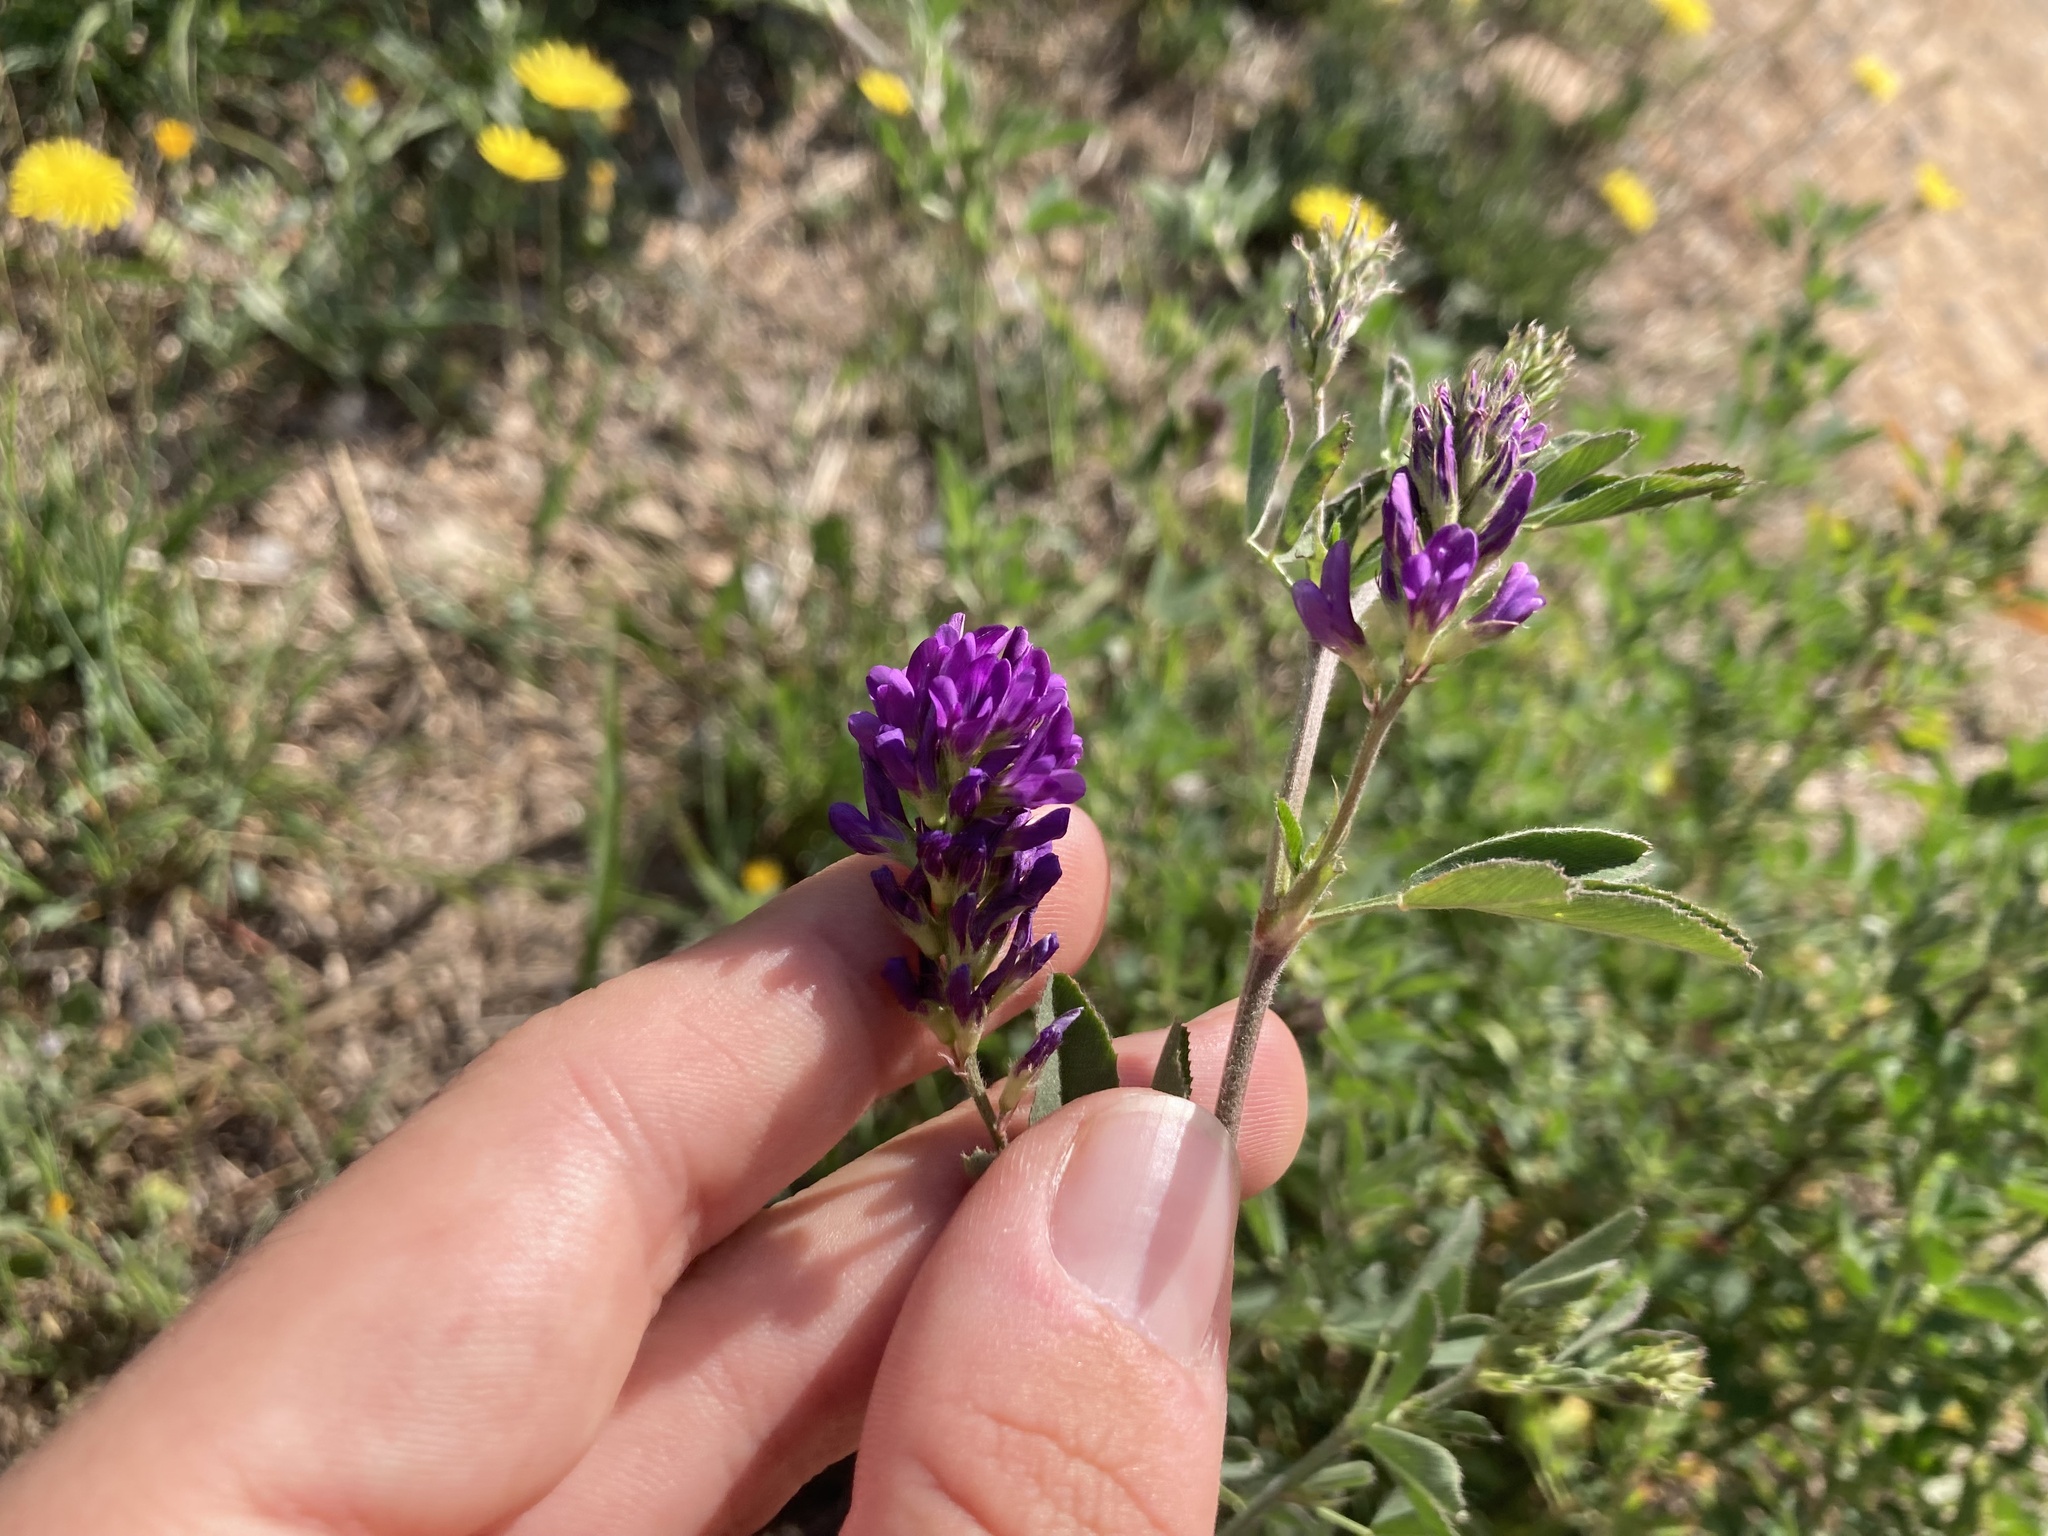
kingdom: Plantae
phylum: Tracheophyta
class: Magnoliopsida
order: Fabales
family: Fabaceae
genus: Medicago
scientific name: Medicago sativa
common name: Alfalfa
